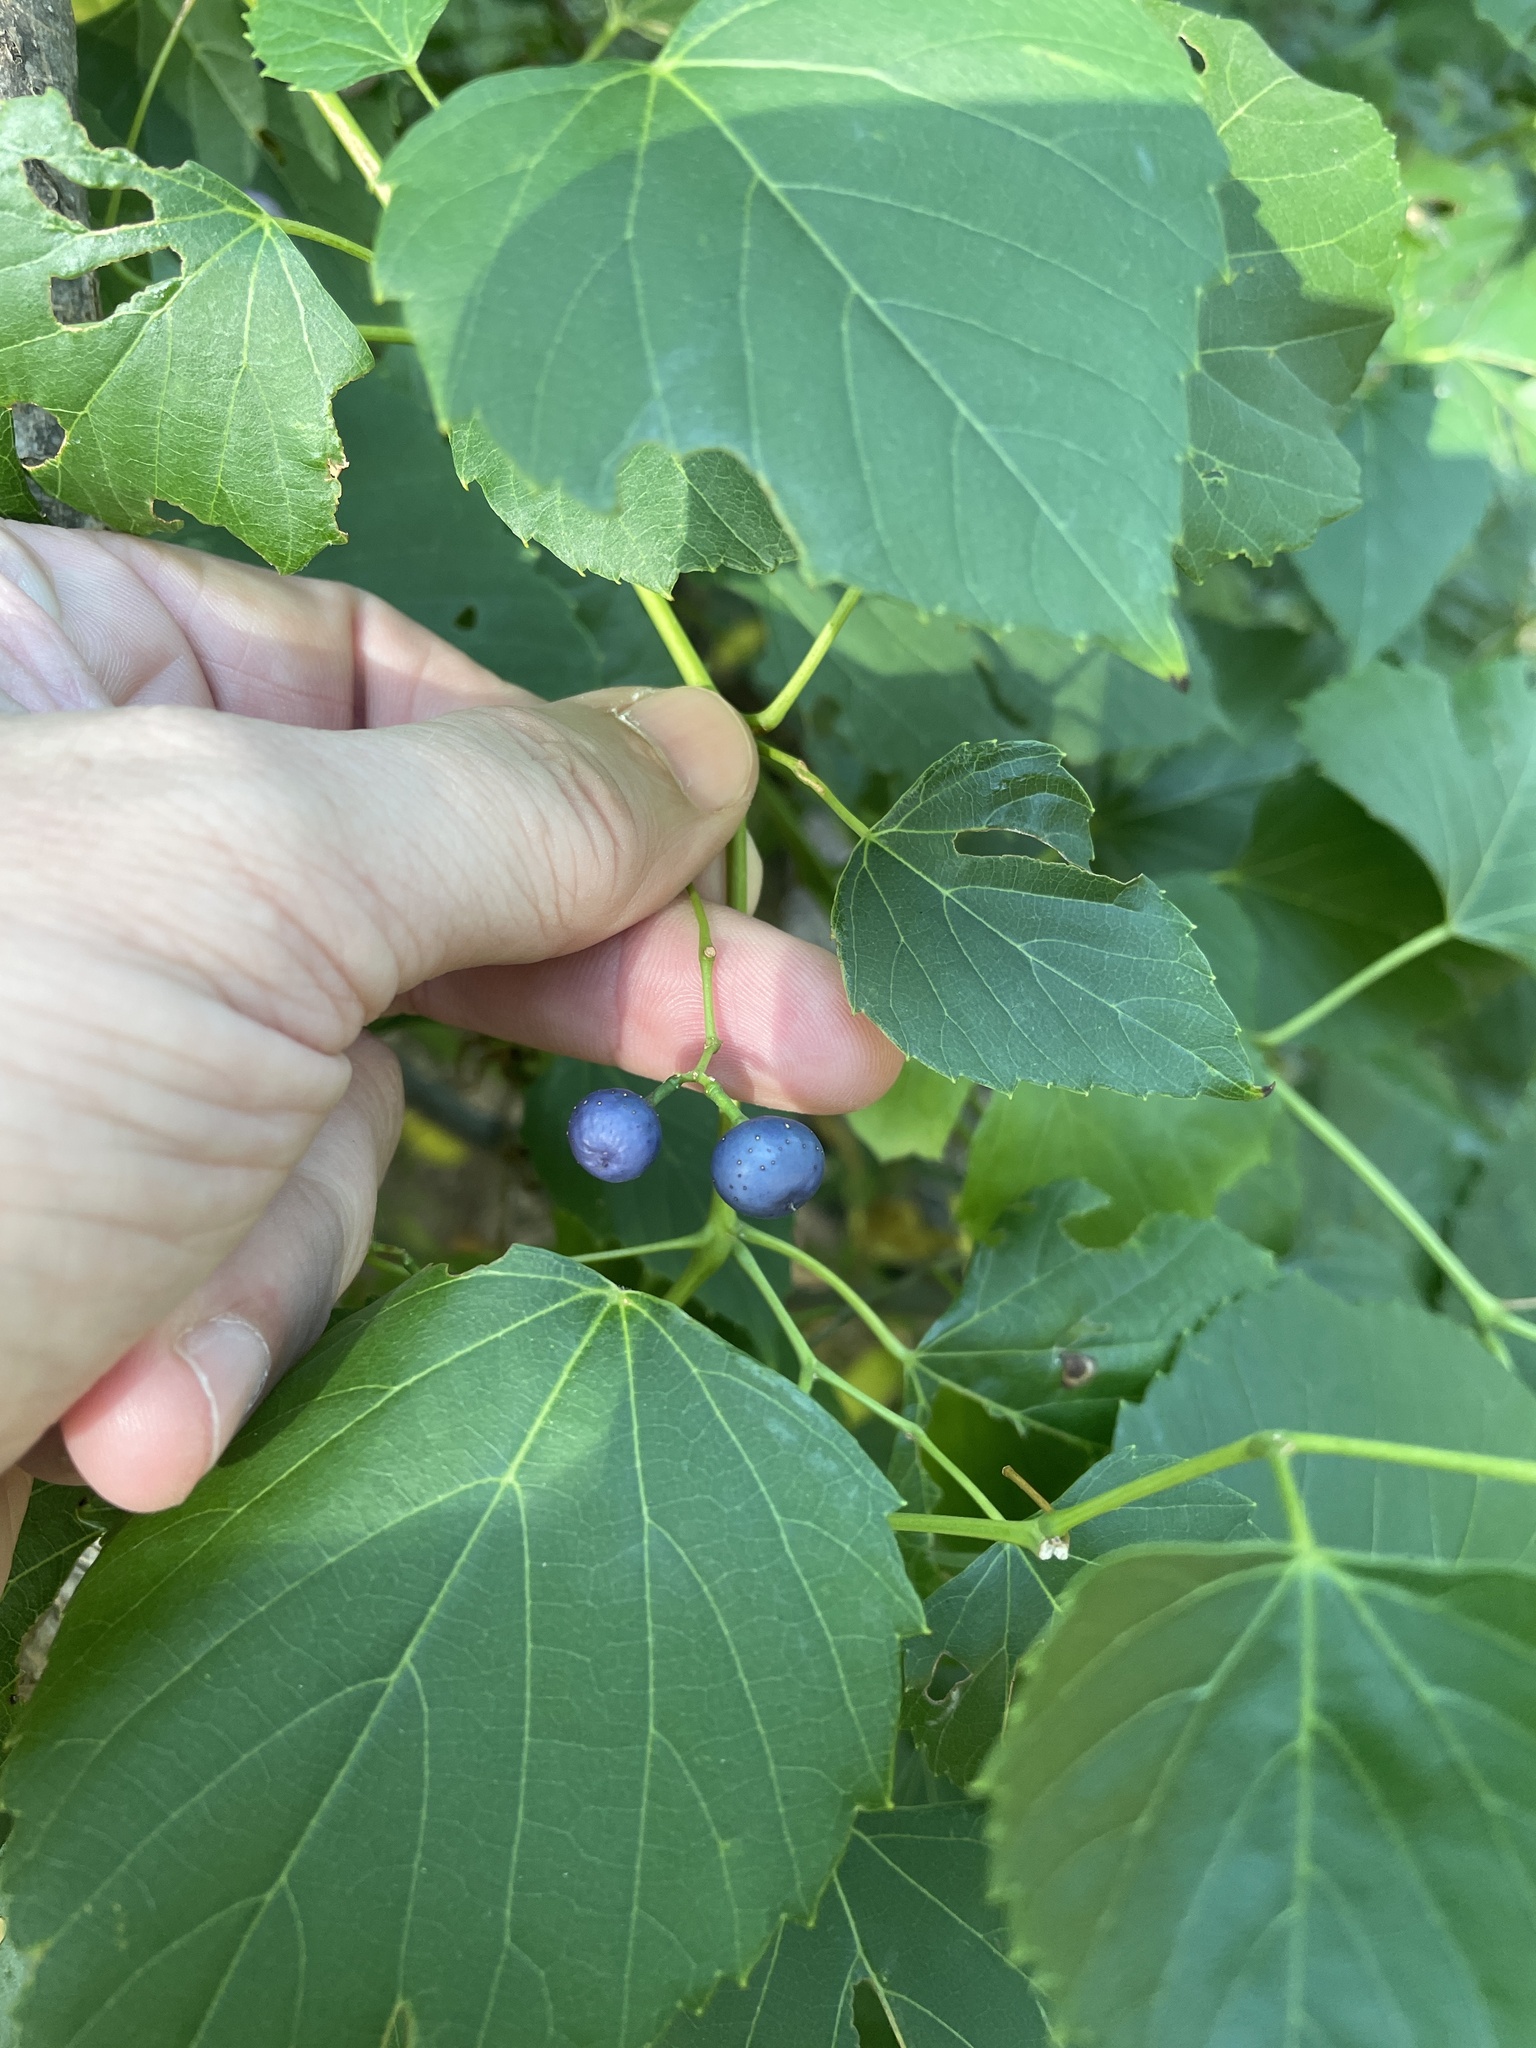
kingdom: Plantae
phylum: Tracheophyta
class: Magnoliopsida
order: Vitales
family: Vitaceae
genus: Ampelopsis
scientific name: Ampelopsis cordata
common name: Heart-leaf ampelopsis
